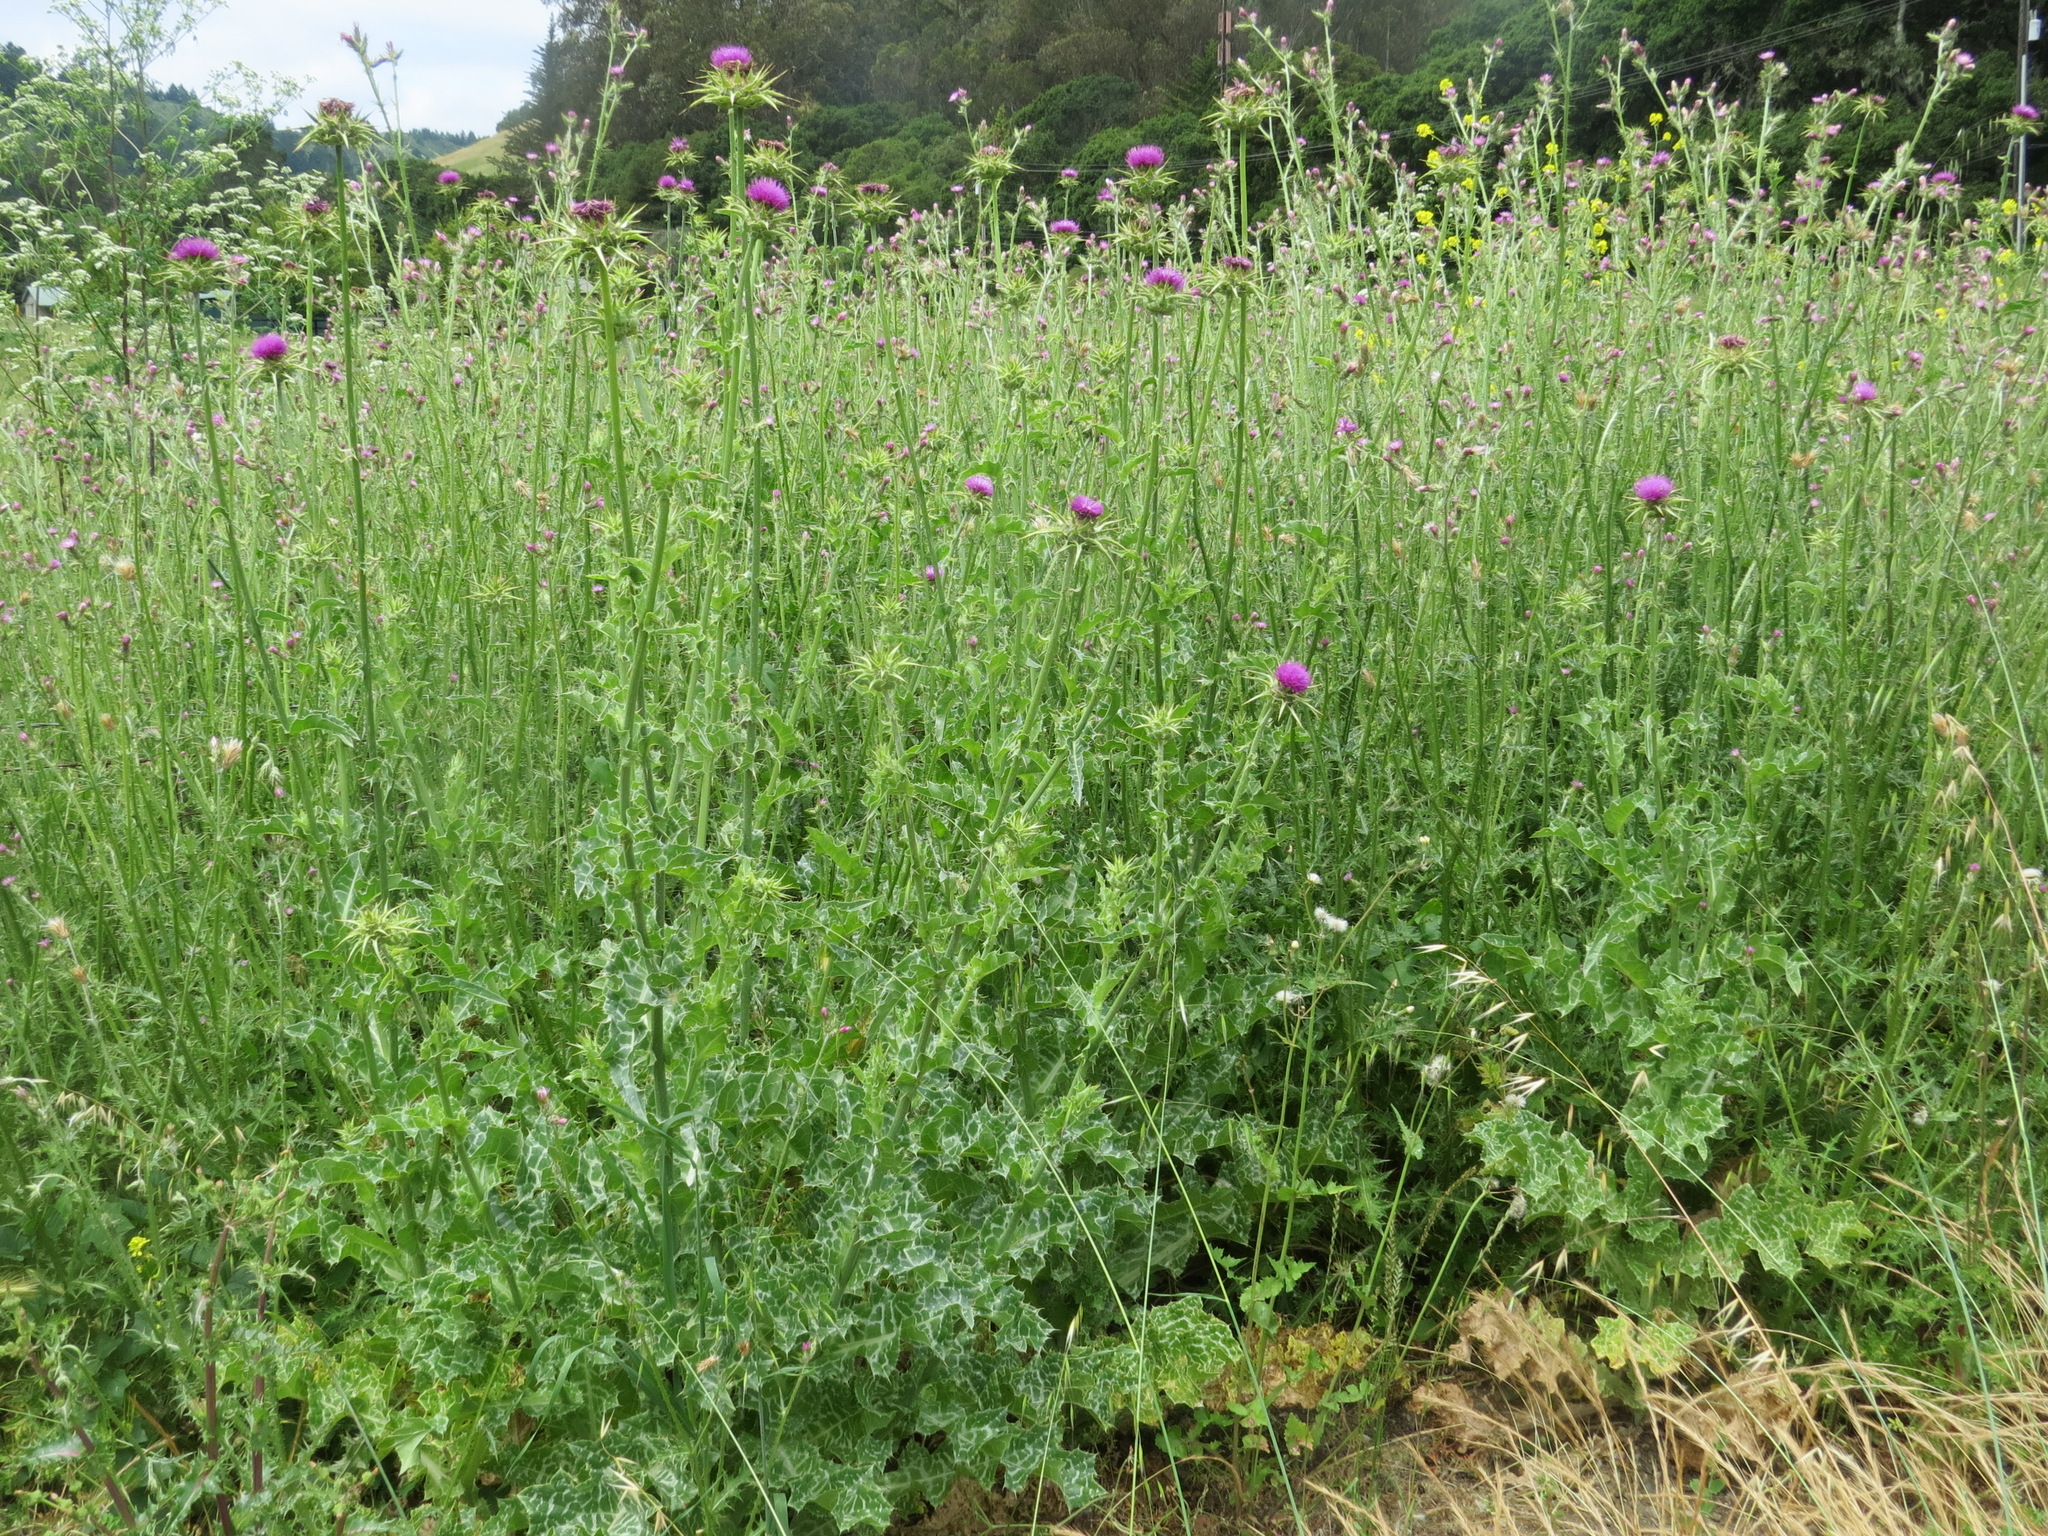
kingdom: Plantae
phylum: Tracheophyta
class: Magnoliopsida
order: Asterales
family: Asteraceae
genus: Silybum
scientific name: Silybum marianum
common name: Milk thistle
